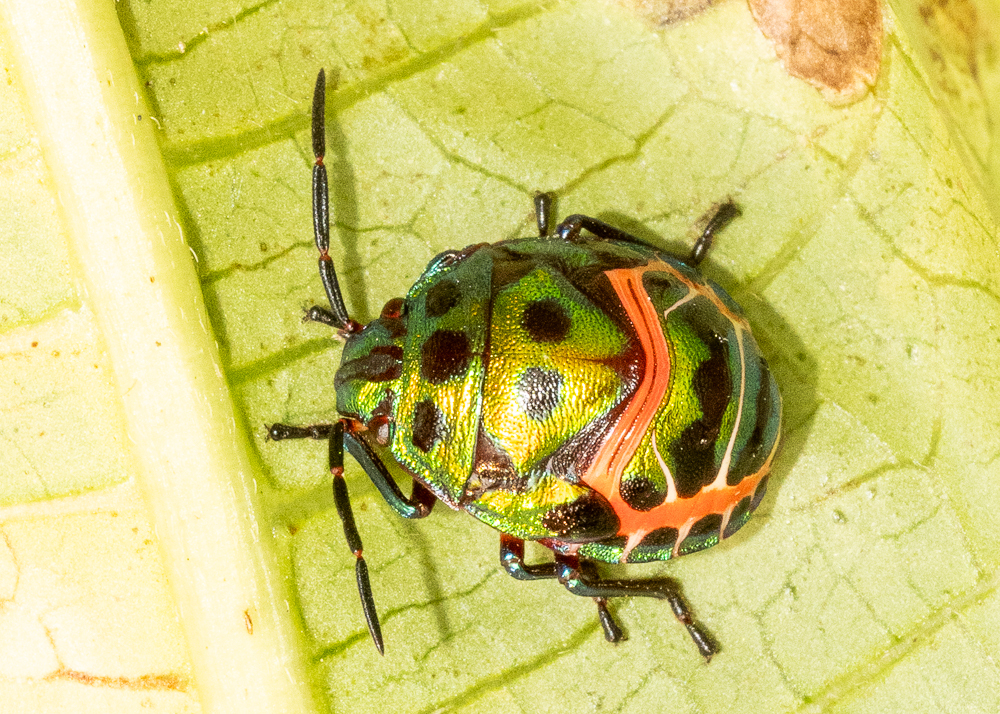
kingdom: Animalia
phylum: Arthropoda
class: Insecta
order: Hemiptera
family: Scutelleridae
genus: Chrysocoris
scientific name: Chrysocoris stollii
